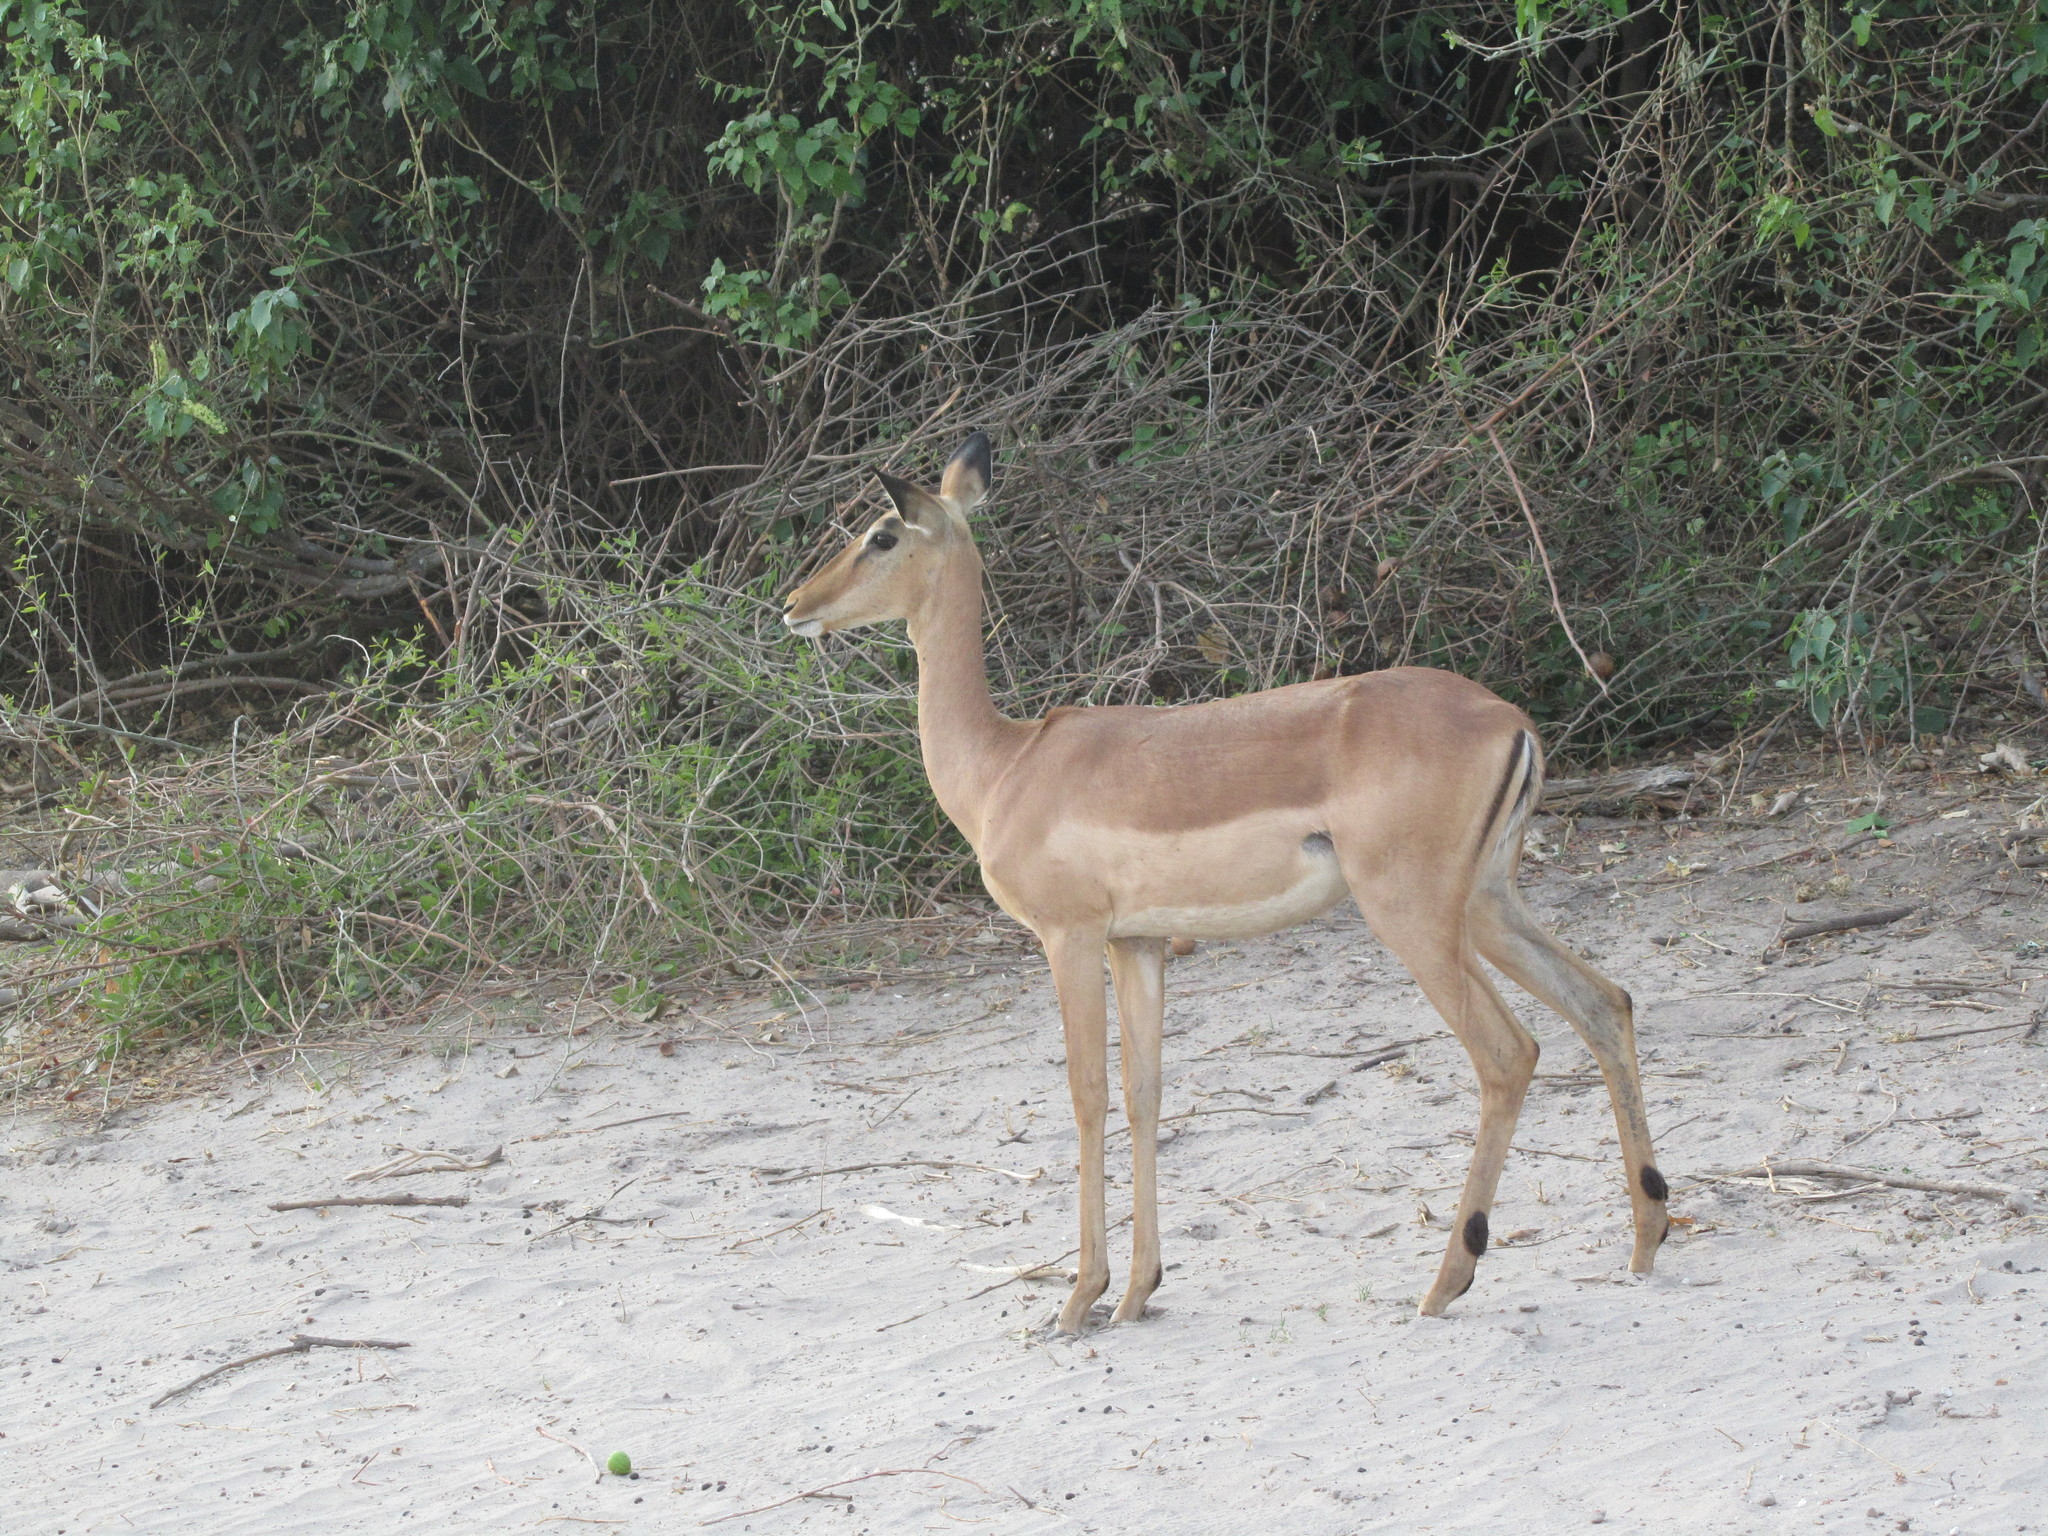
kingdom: Animalia
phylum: Chordata
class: Mammalia
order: Artiodactyla
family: Bovidae
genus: Aepyceros
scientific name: Aepyceros melampus
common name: Impala
